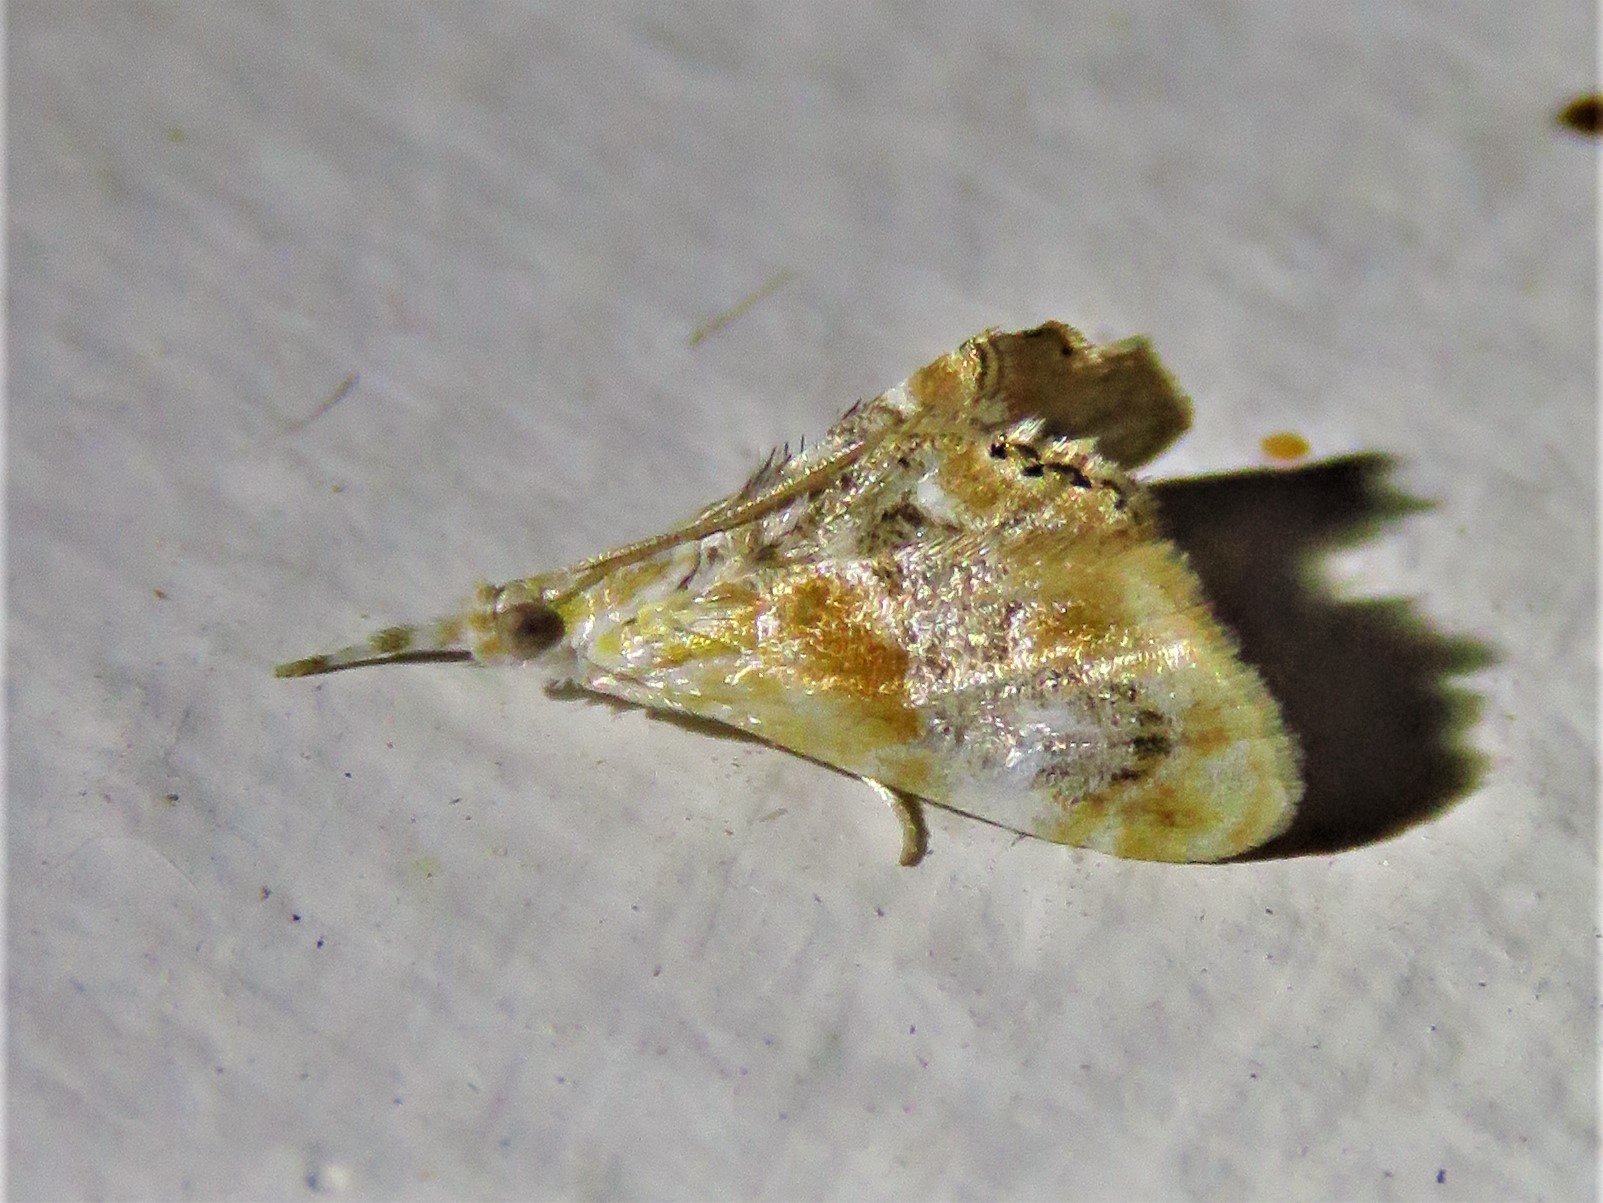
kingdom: Animalia
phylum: Arthropoda
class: Insecta
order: Lepidoptera
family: Crambidae
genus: Dicymolomia
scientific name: Dicymolomia julianalis
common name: Julia's dicymolomia moth
